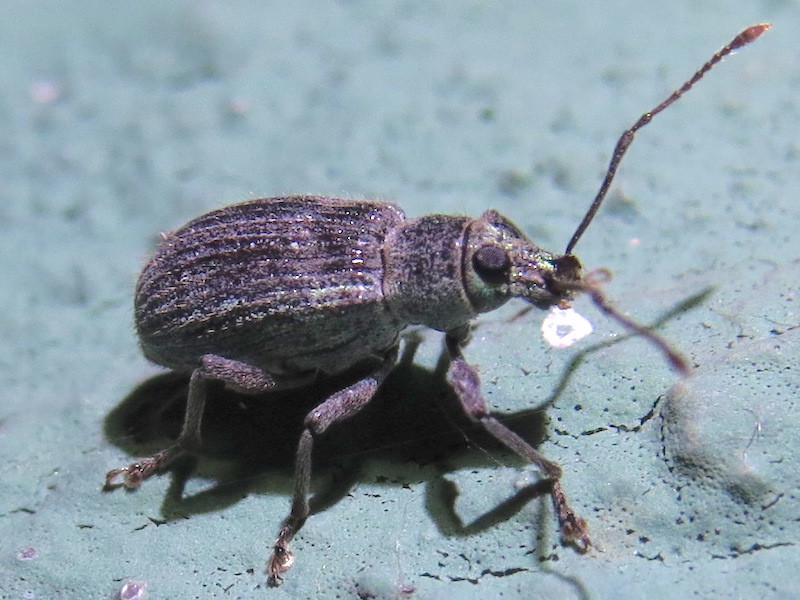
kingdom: Animalia
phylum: Arthropoda
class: Insecta
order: Coleoptera
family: Curculionidae
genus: Cyrtepistomus
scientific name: Cyrtepistomus castaneus
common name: Weevil
